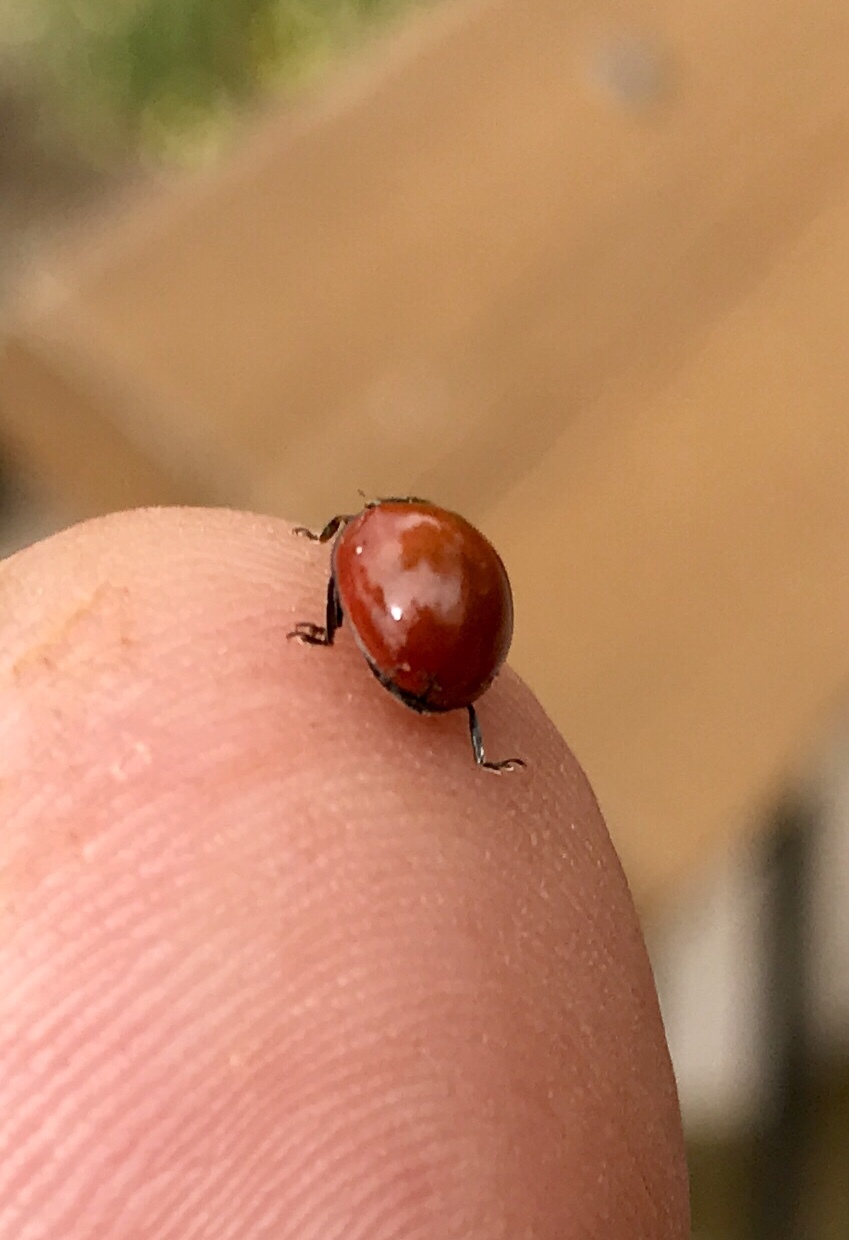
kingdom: Animalia
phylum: Arthropoda
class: Insecta
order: Coleoptera
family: Coccinellidae
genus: Cycloneda
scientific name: Cycloneda sanguinea
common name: Ladybird beetle
